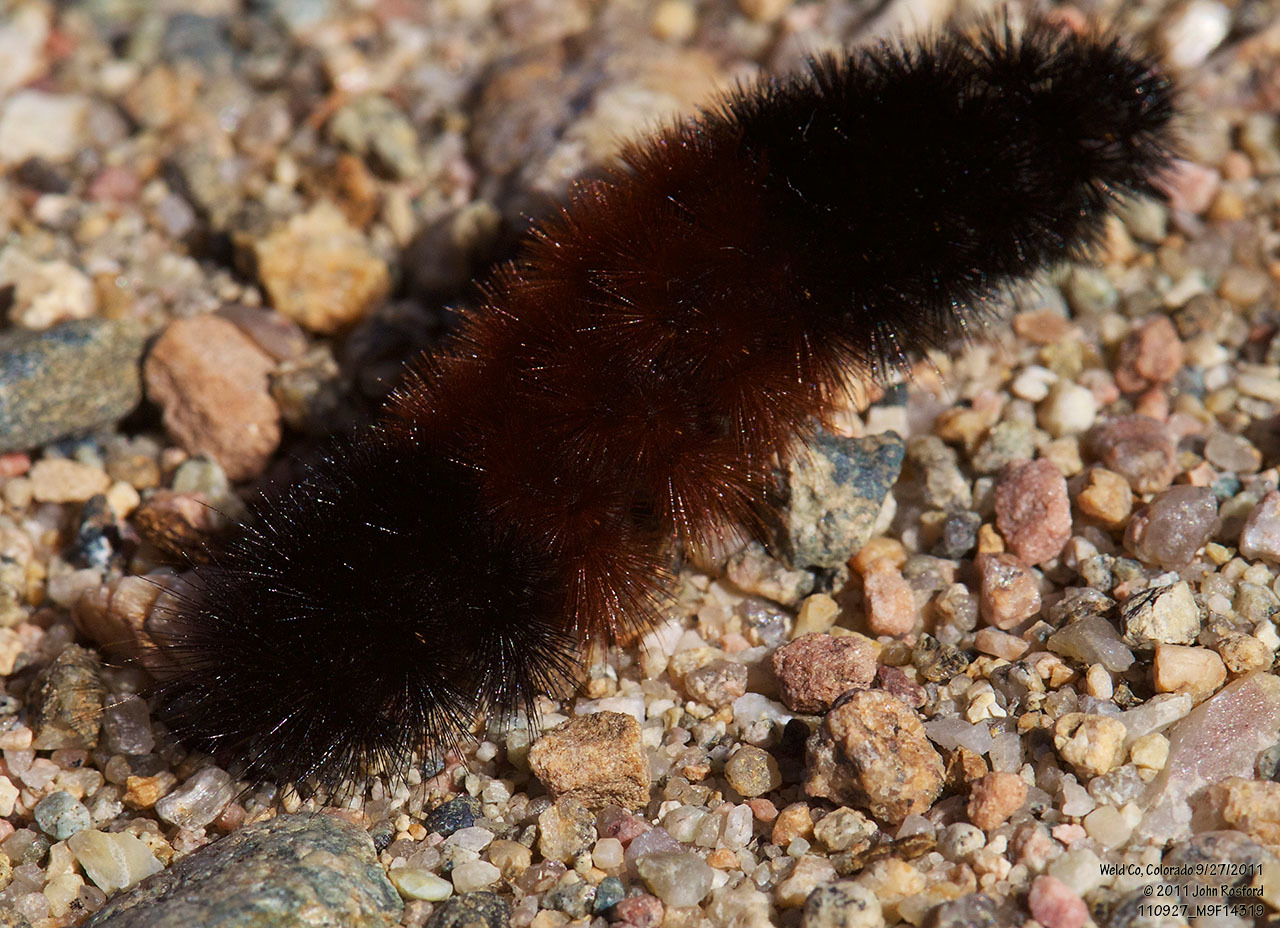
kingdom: Animalia
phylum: Arthropoda
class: Insecta
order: Lepidoptera
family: Erebidae
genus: Pyrrharctia
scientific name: Pyrrharctia isabella
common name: Isabella tiger moth
